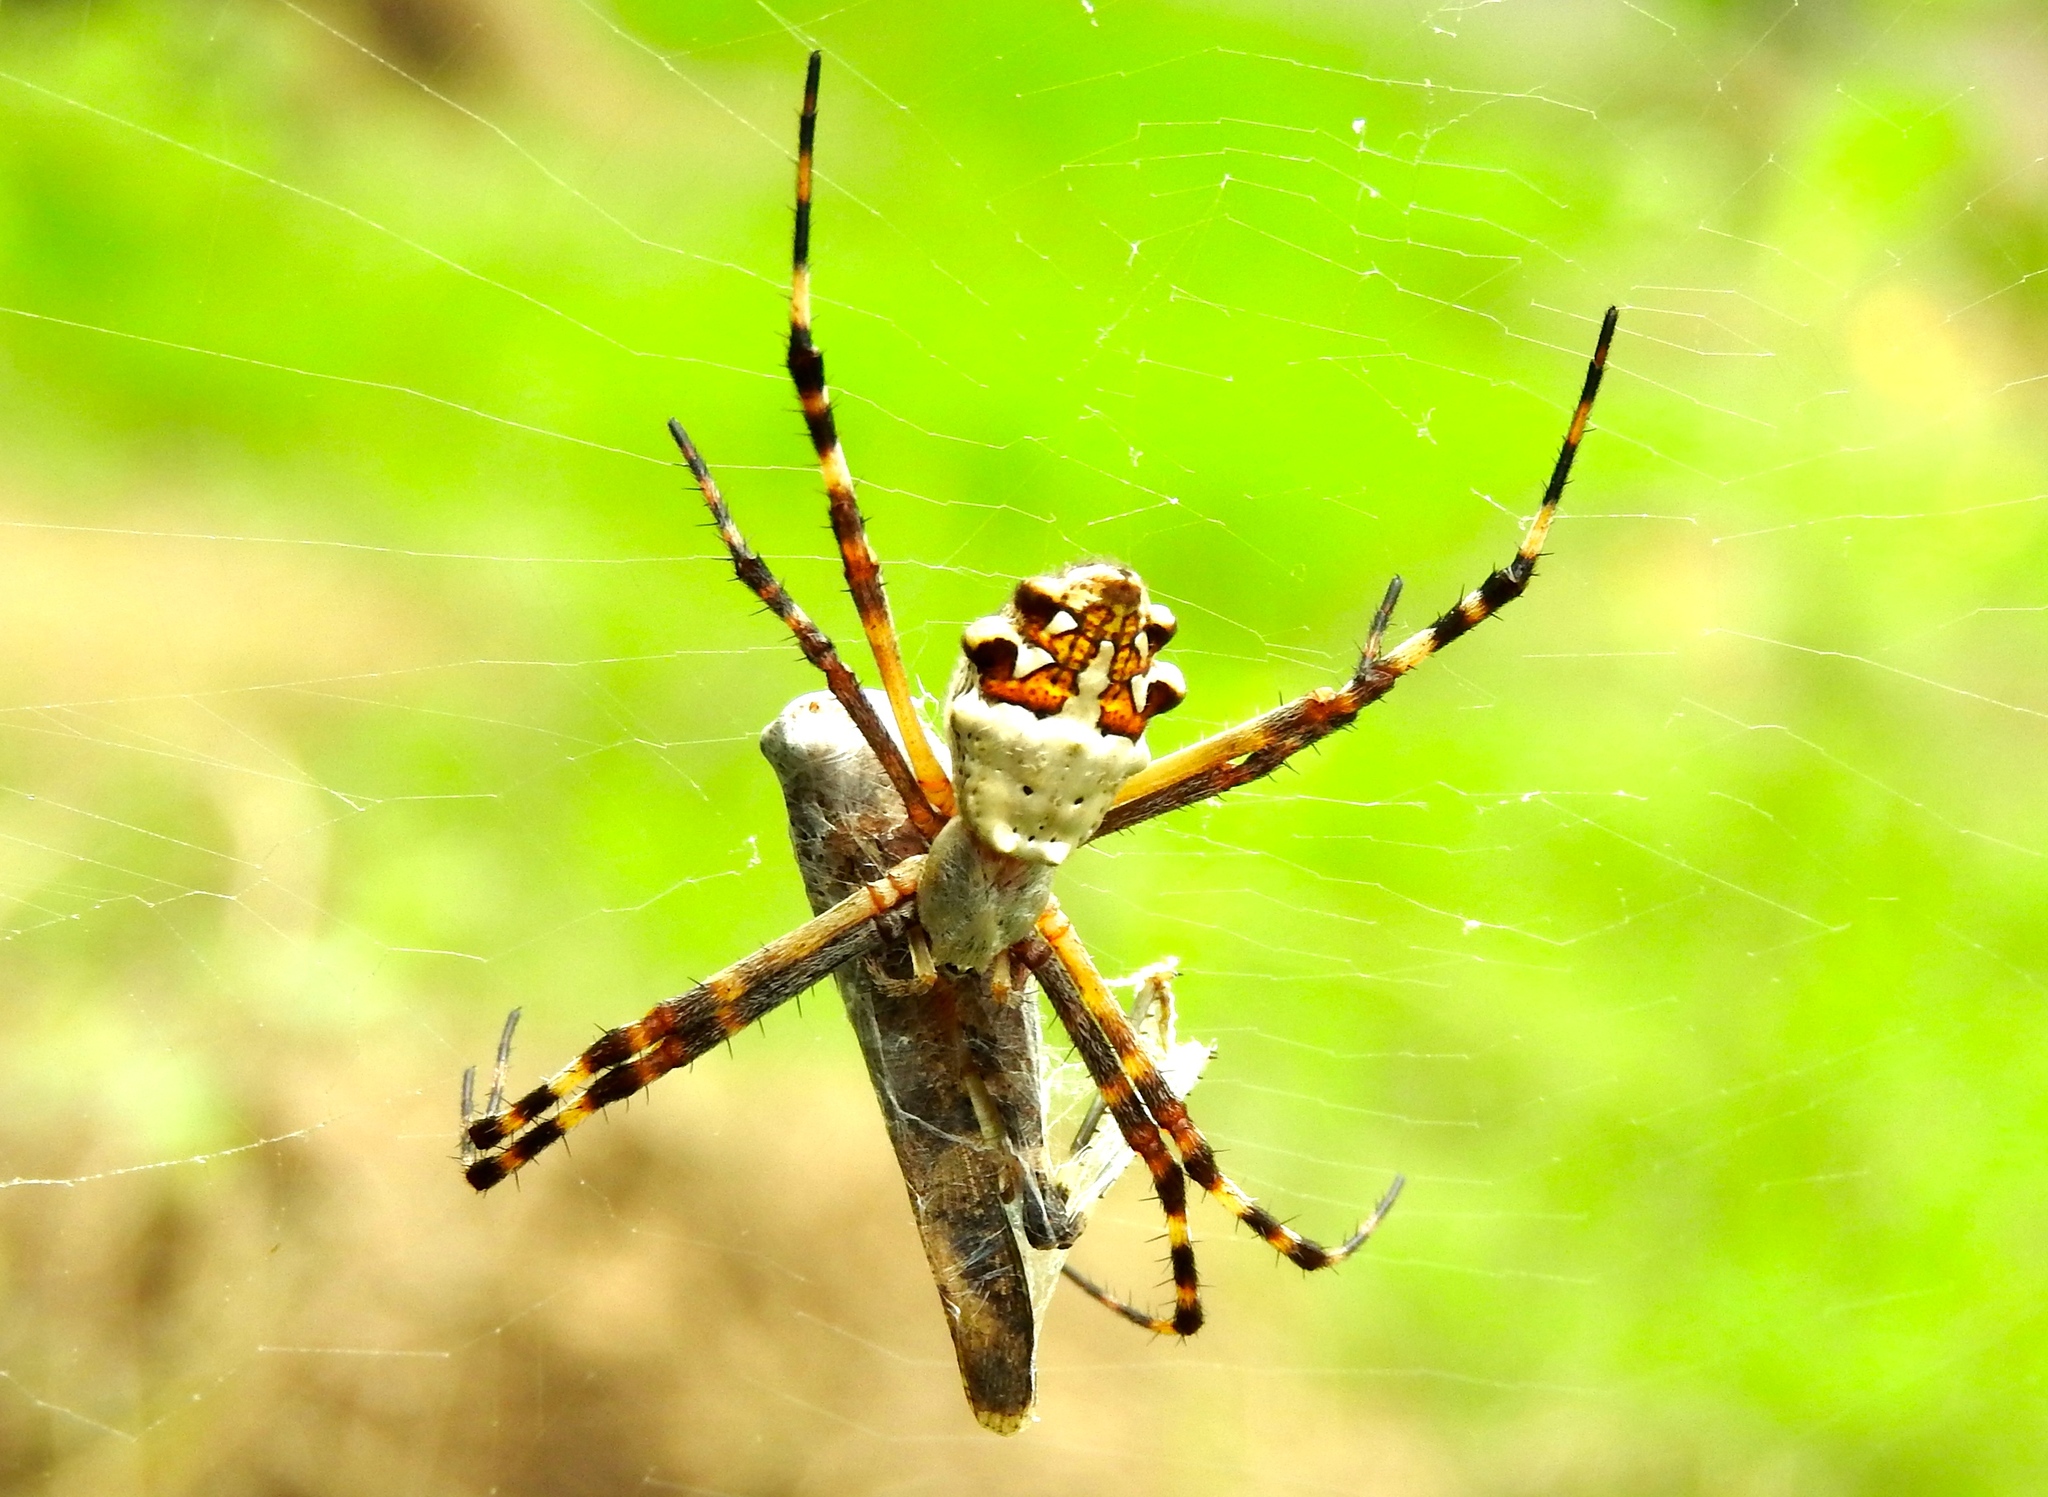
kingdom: Animalia
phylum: Arthropoda
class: Arachnida
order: Araneae
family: Araneidae
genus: Argiope
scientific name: Argiope argentata
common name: Orb weavers
